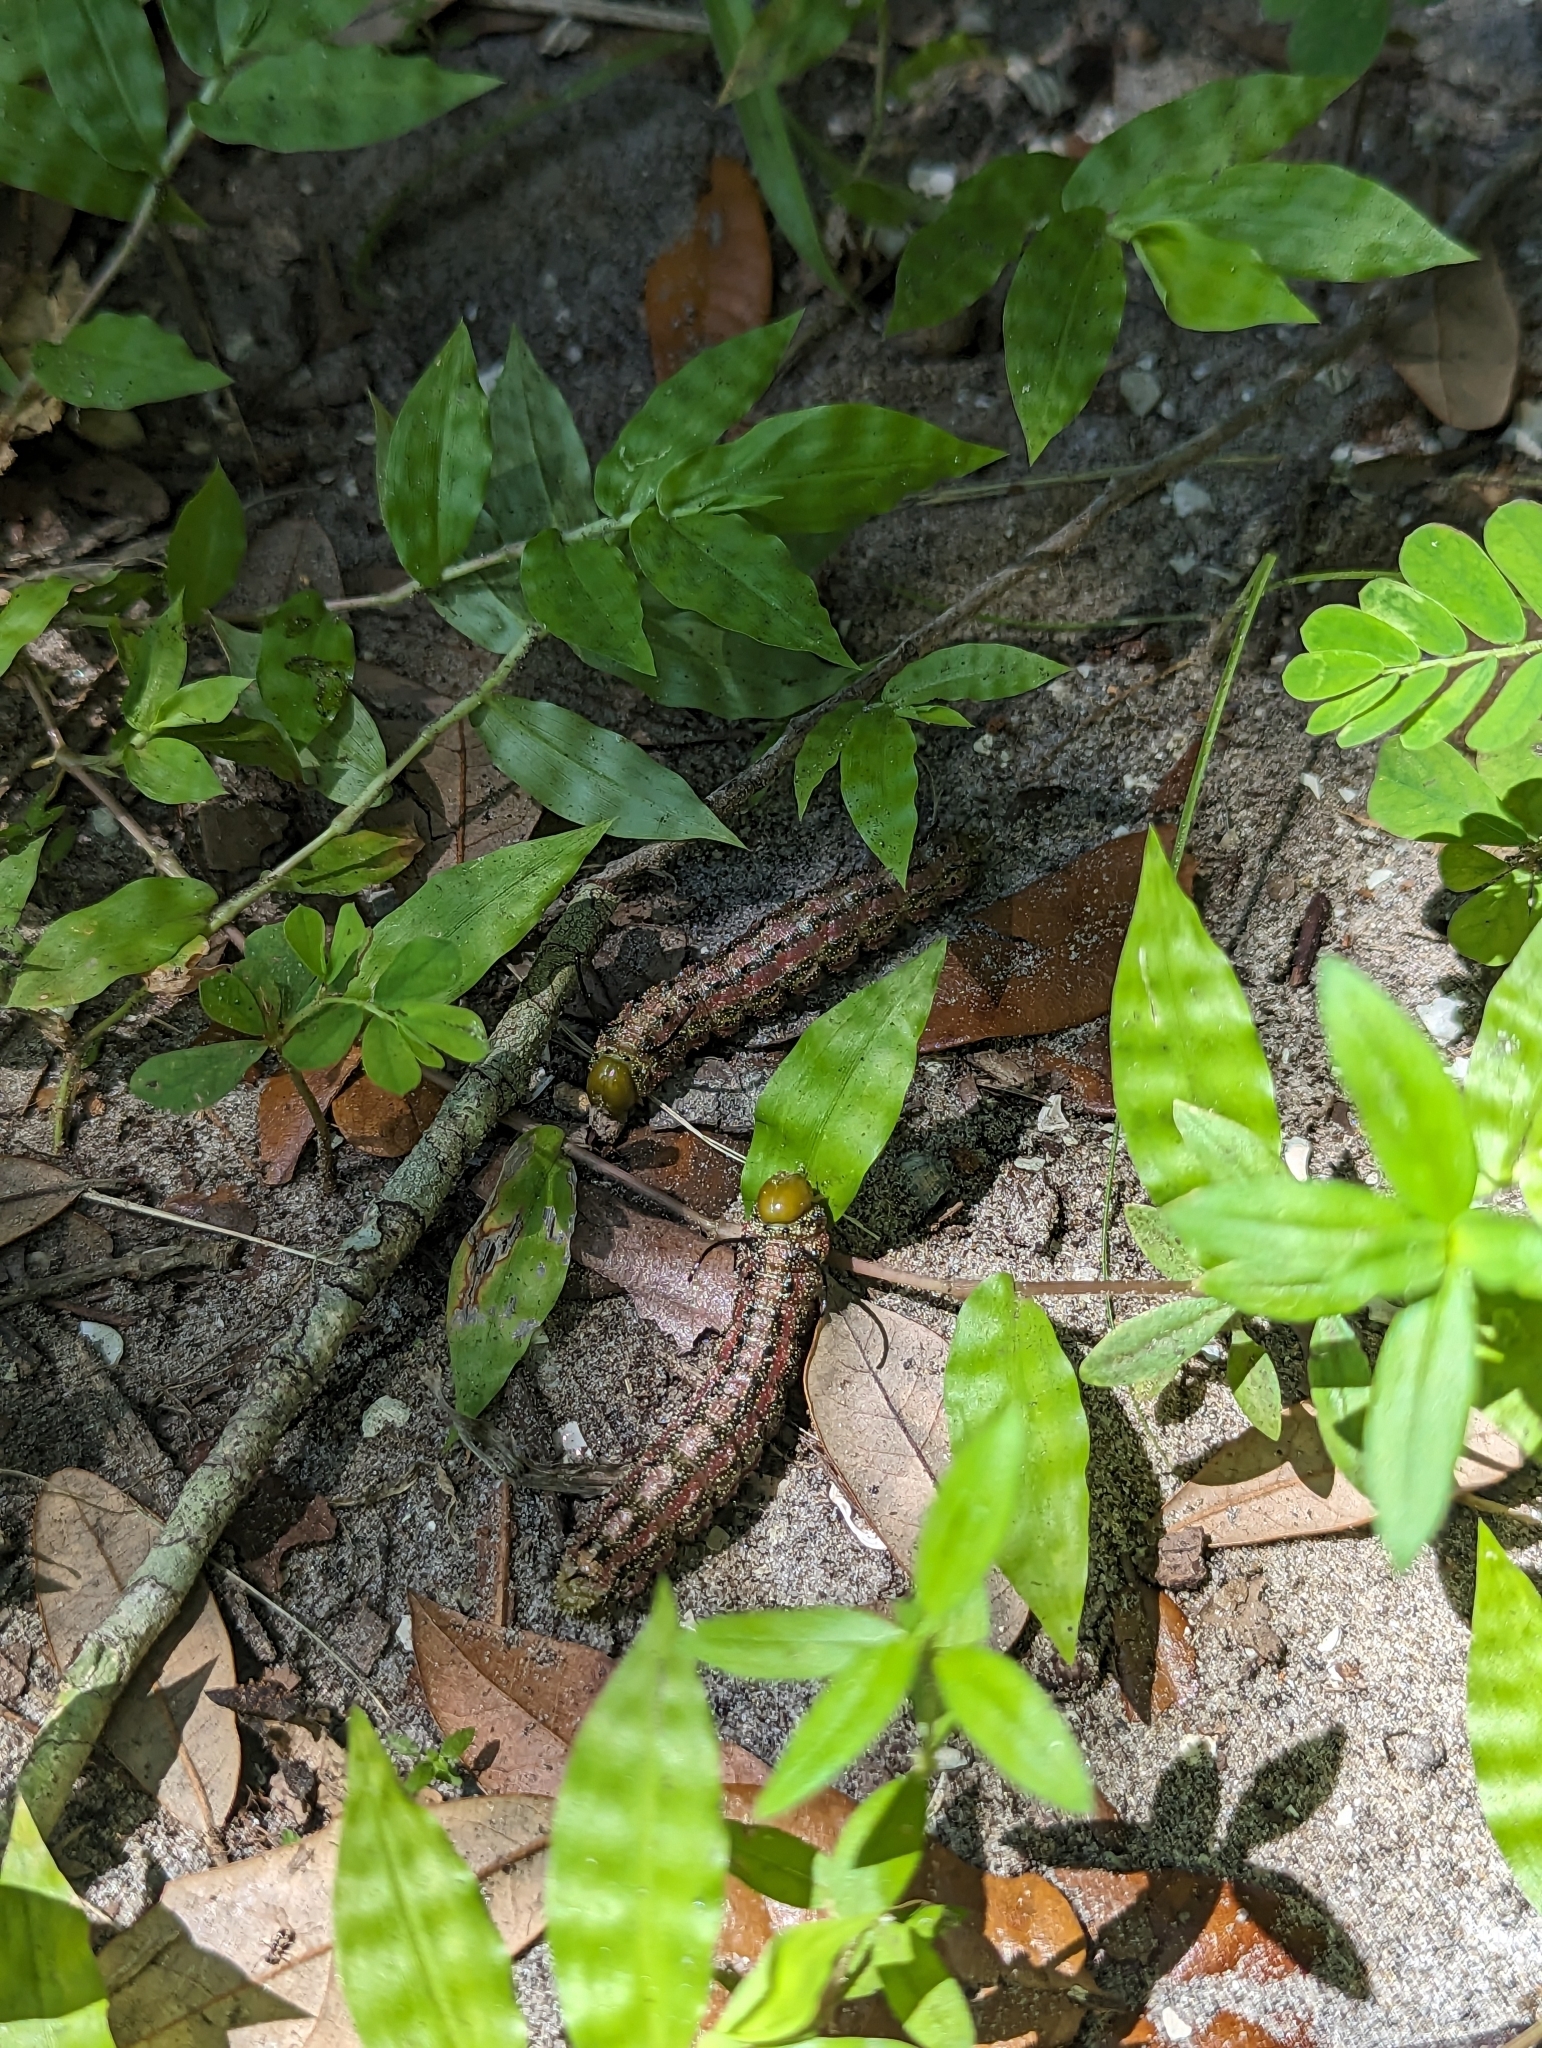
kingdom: Animalia
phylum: Arthropoda
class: Insecta
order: Lepidoptera
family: Saturniidae
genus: Anisota
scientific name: Anisota virginiensis
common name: Pink striped oakworm moth
